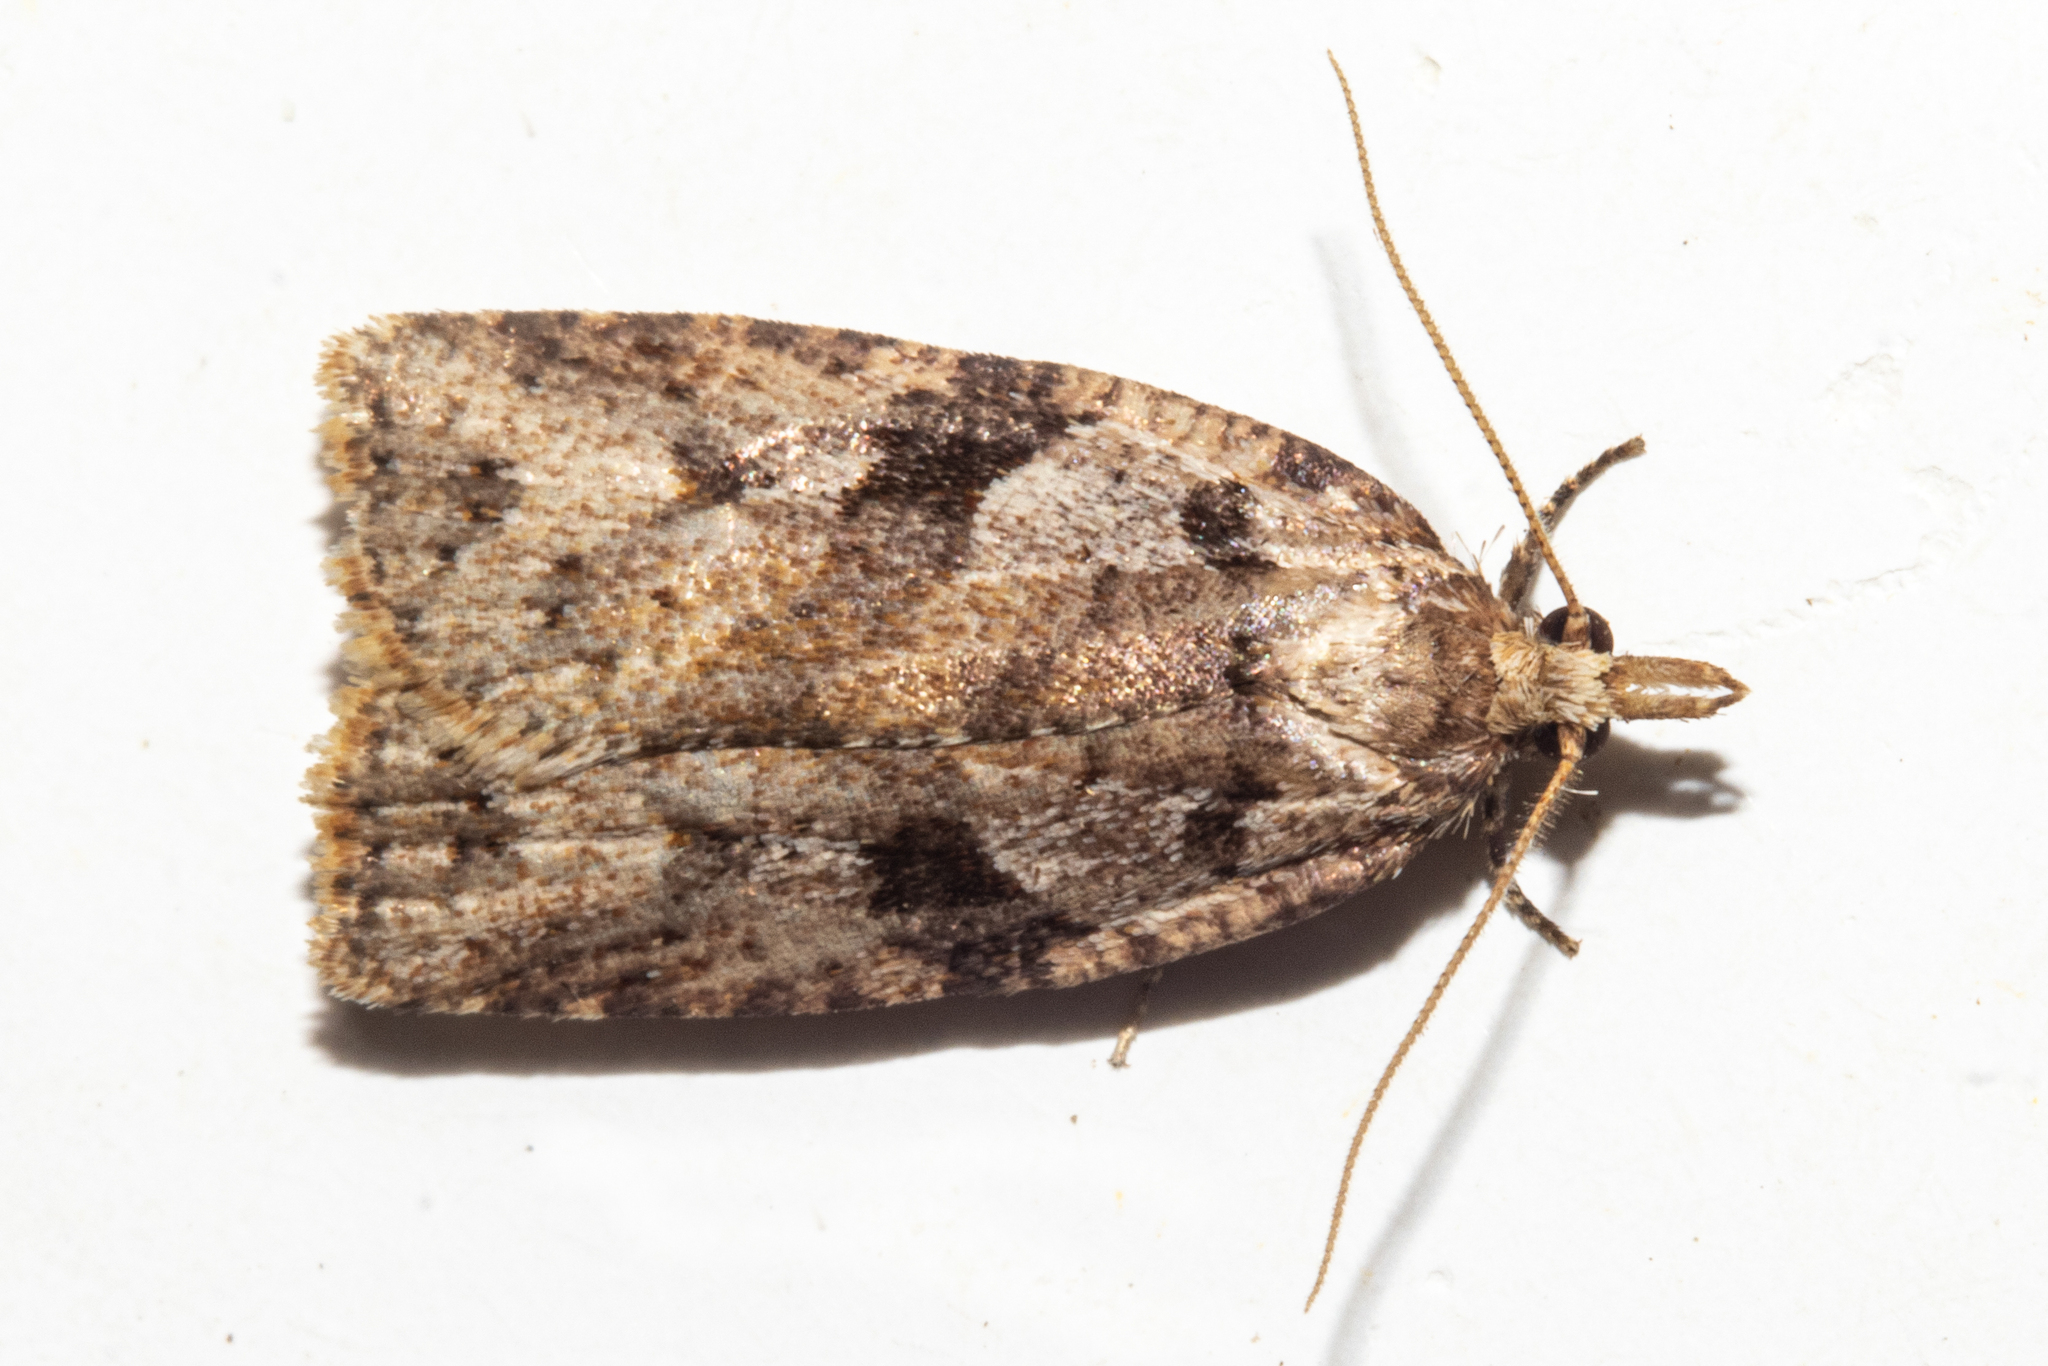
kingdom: Animalia
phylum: Arthropoda
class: Insecta
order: Lepidoptera
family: Tortricidae
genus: Ctenopseustis
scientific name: Ctenopseustis obliquana
